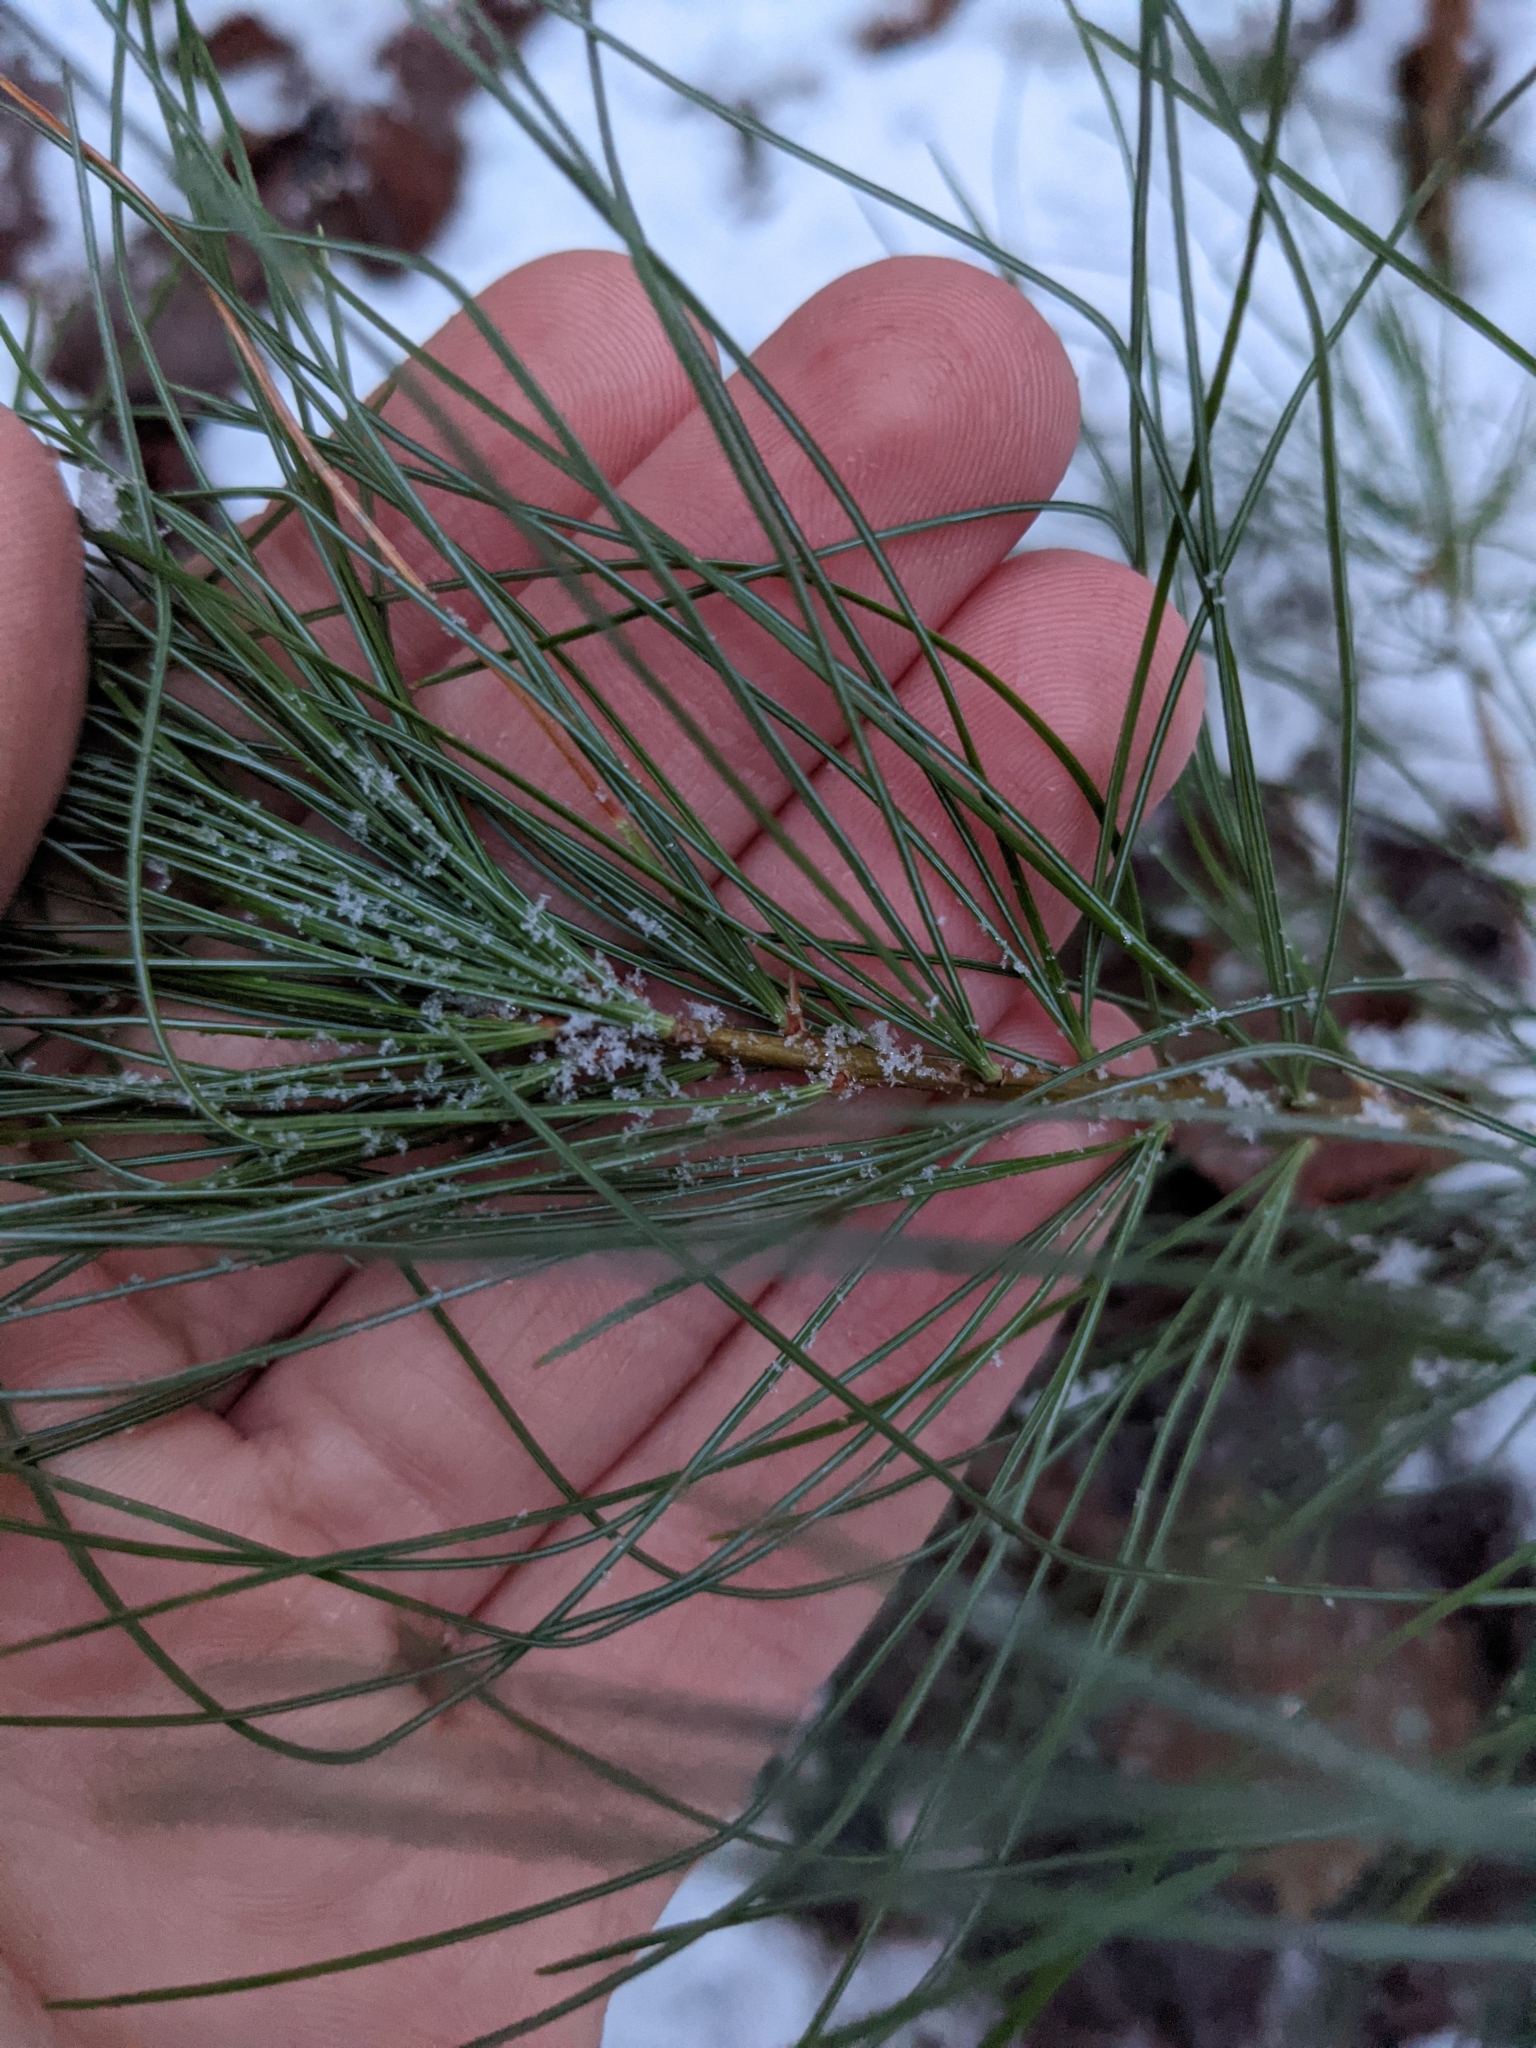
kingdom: Plantae
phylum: Tracheophyta
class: Pinopsida
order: Pinales
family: Pinaceae
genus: Pinus
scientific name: Pinus strobus
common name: Weymouth pine
